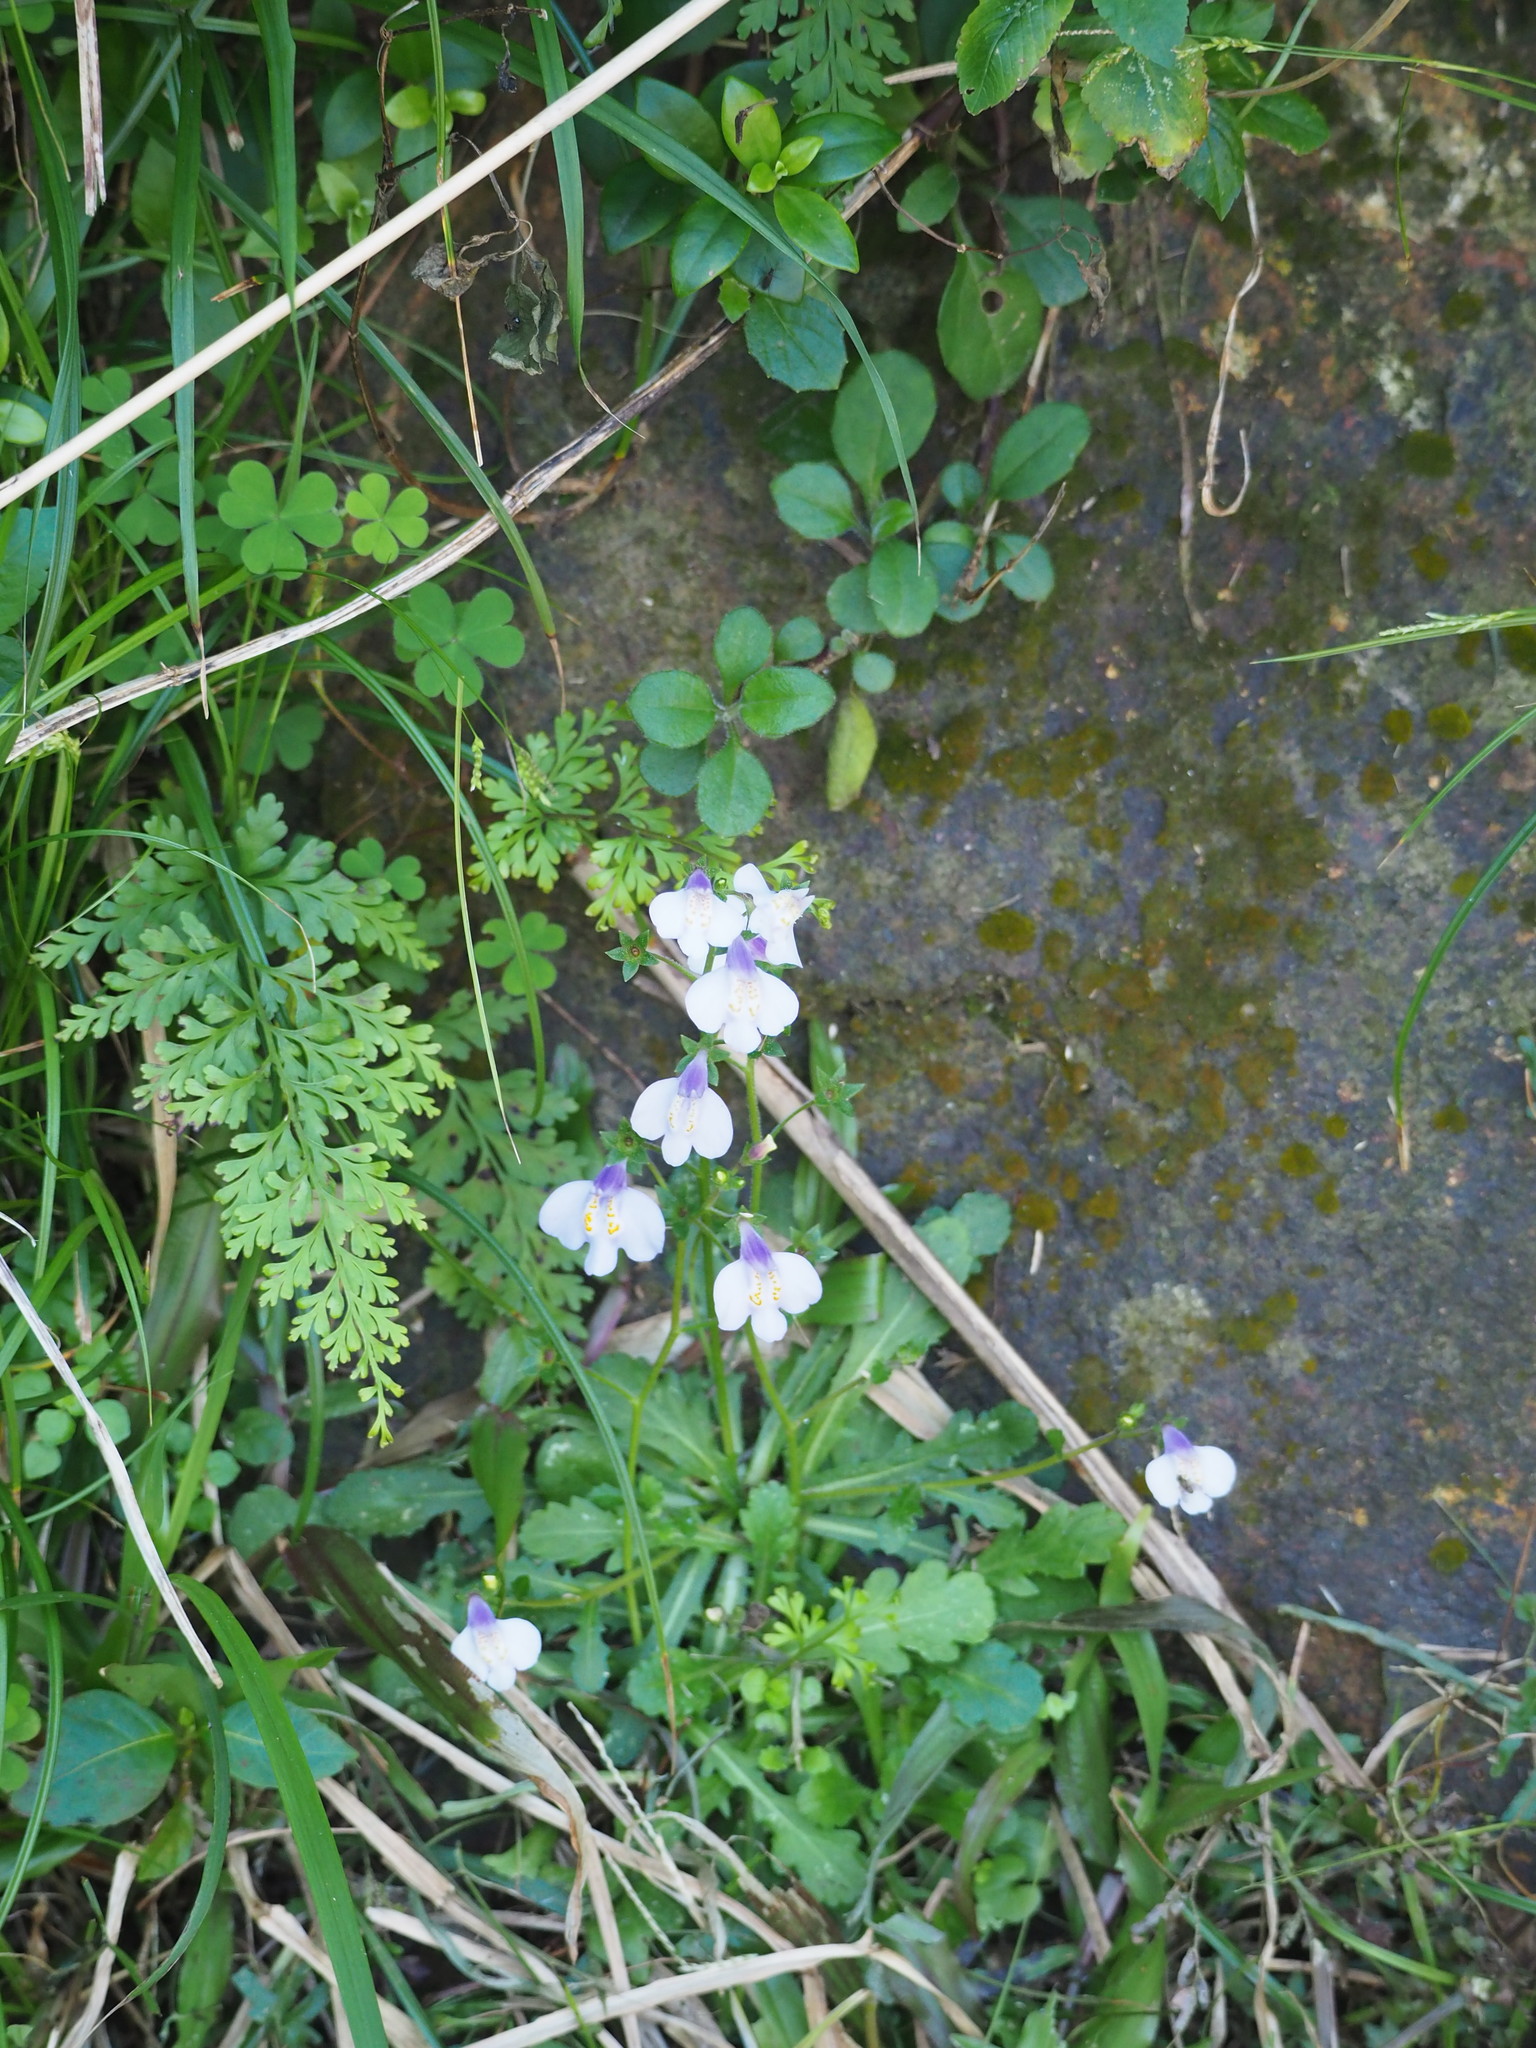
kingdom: Plantae
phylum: Tracheophyta
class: Magnoliopsida
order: Lamiales
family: Mazaceae
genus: Mazus
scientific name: Mazus fauriei
